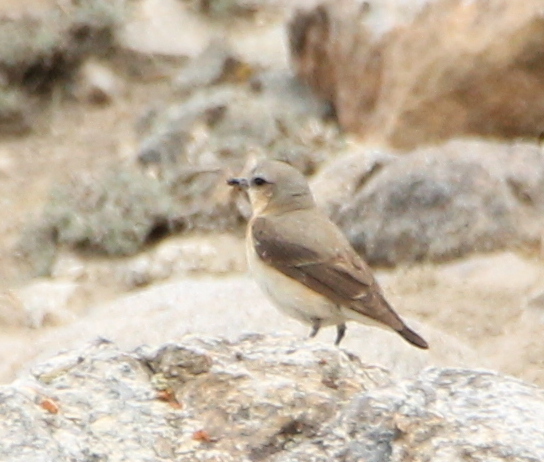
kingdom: Animalia
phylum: Chordata
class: Aves
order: Passeriformes
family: Muscicapidae
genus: Oenanthe
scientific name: Oenanthe oenanthe
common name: Northern wheatear
